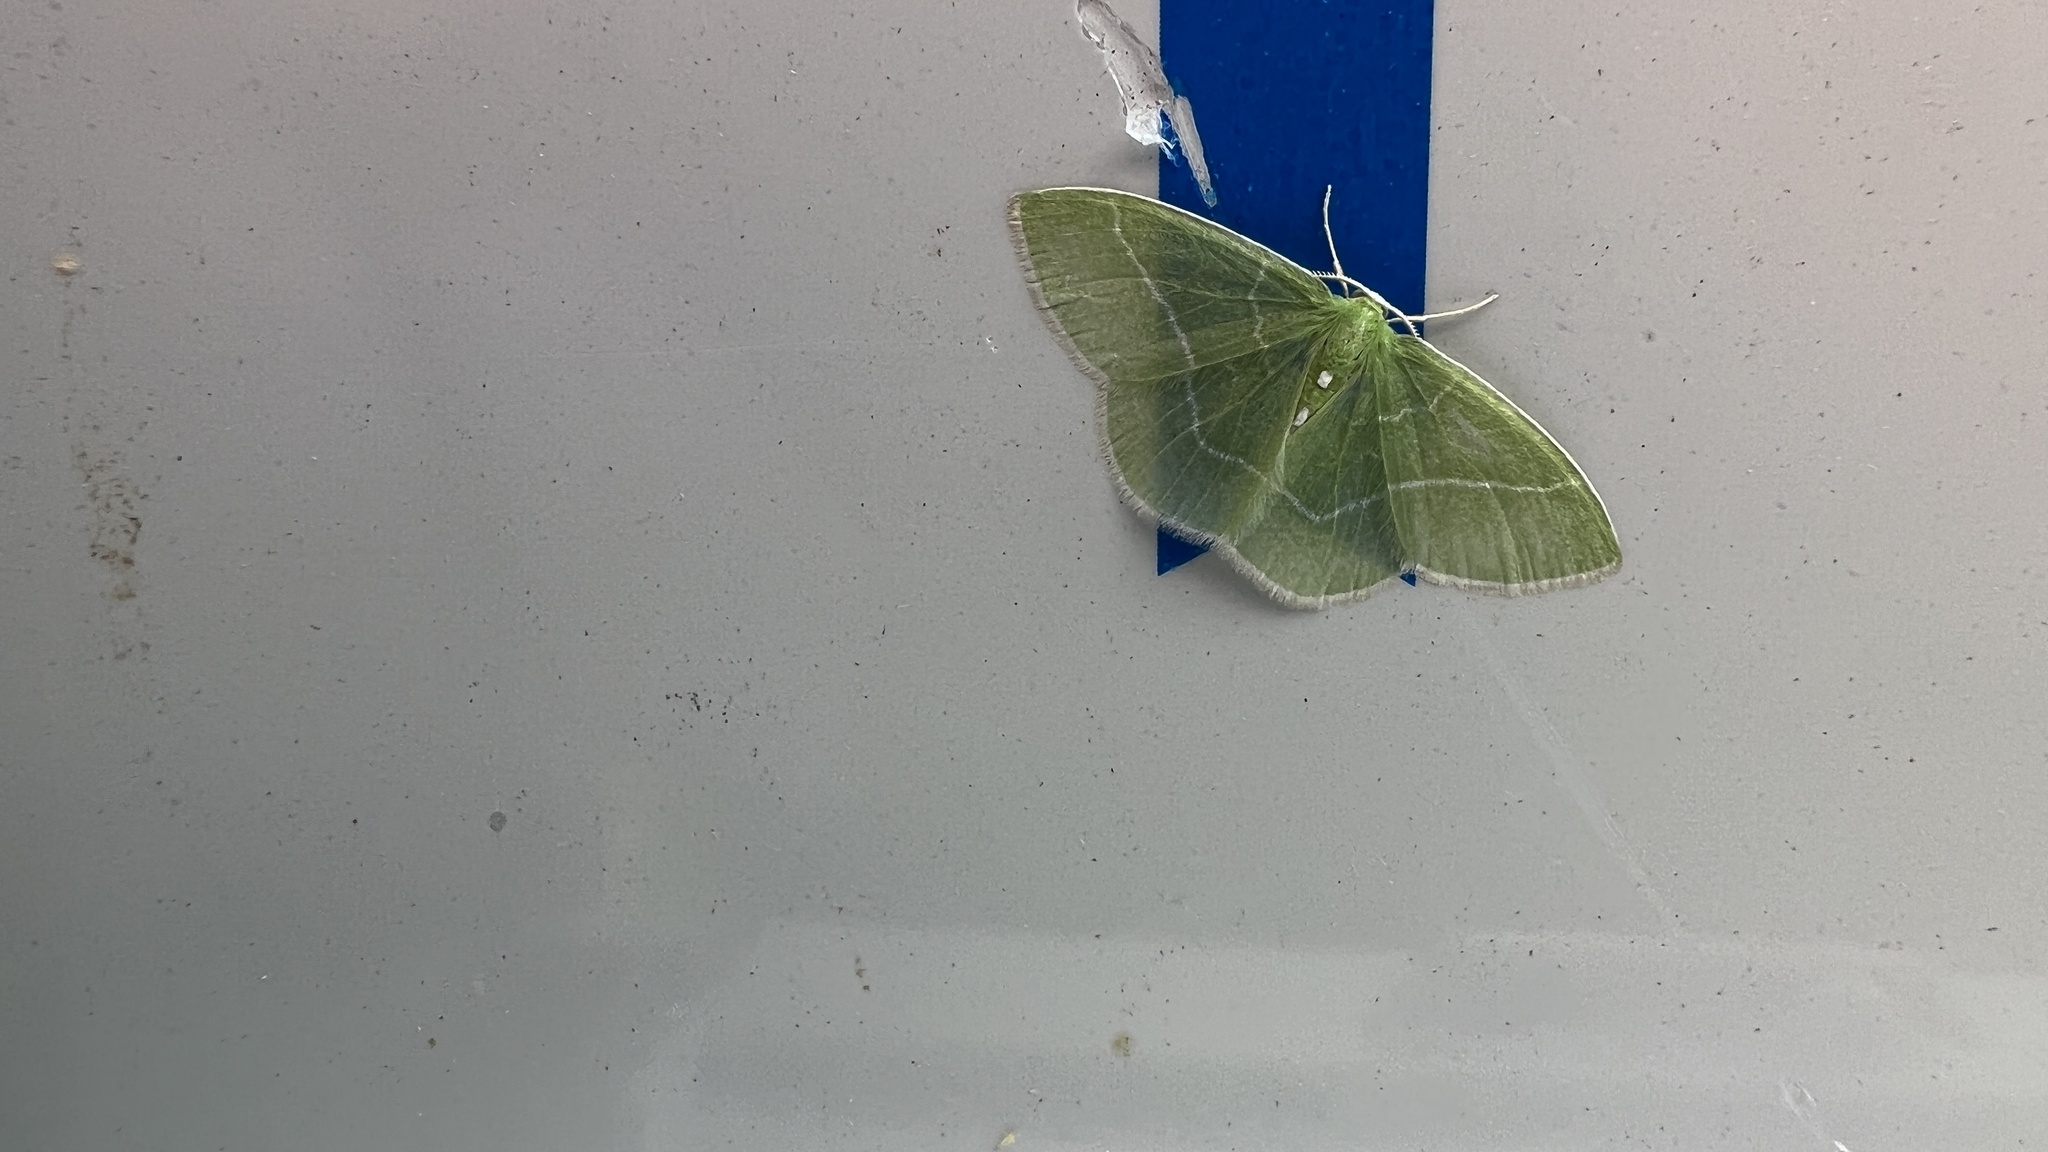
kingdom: Animalia
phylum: Arthropoda
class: Insecta
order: Lepidoptera
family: Geometridae
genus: Nemoria
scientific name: Nemoria mimosaria
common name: White-fringed emerald
